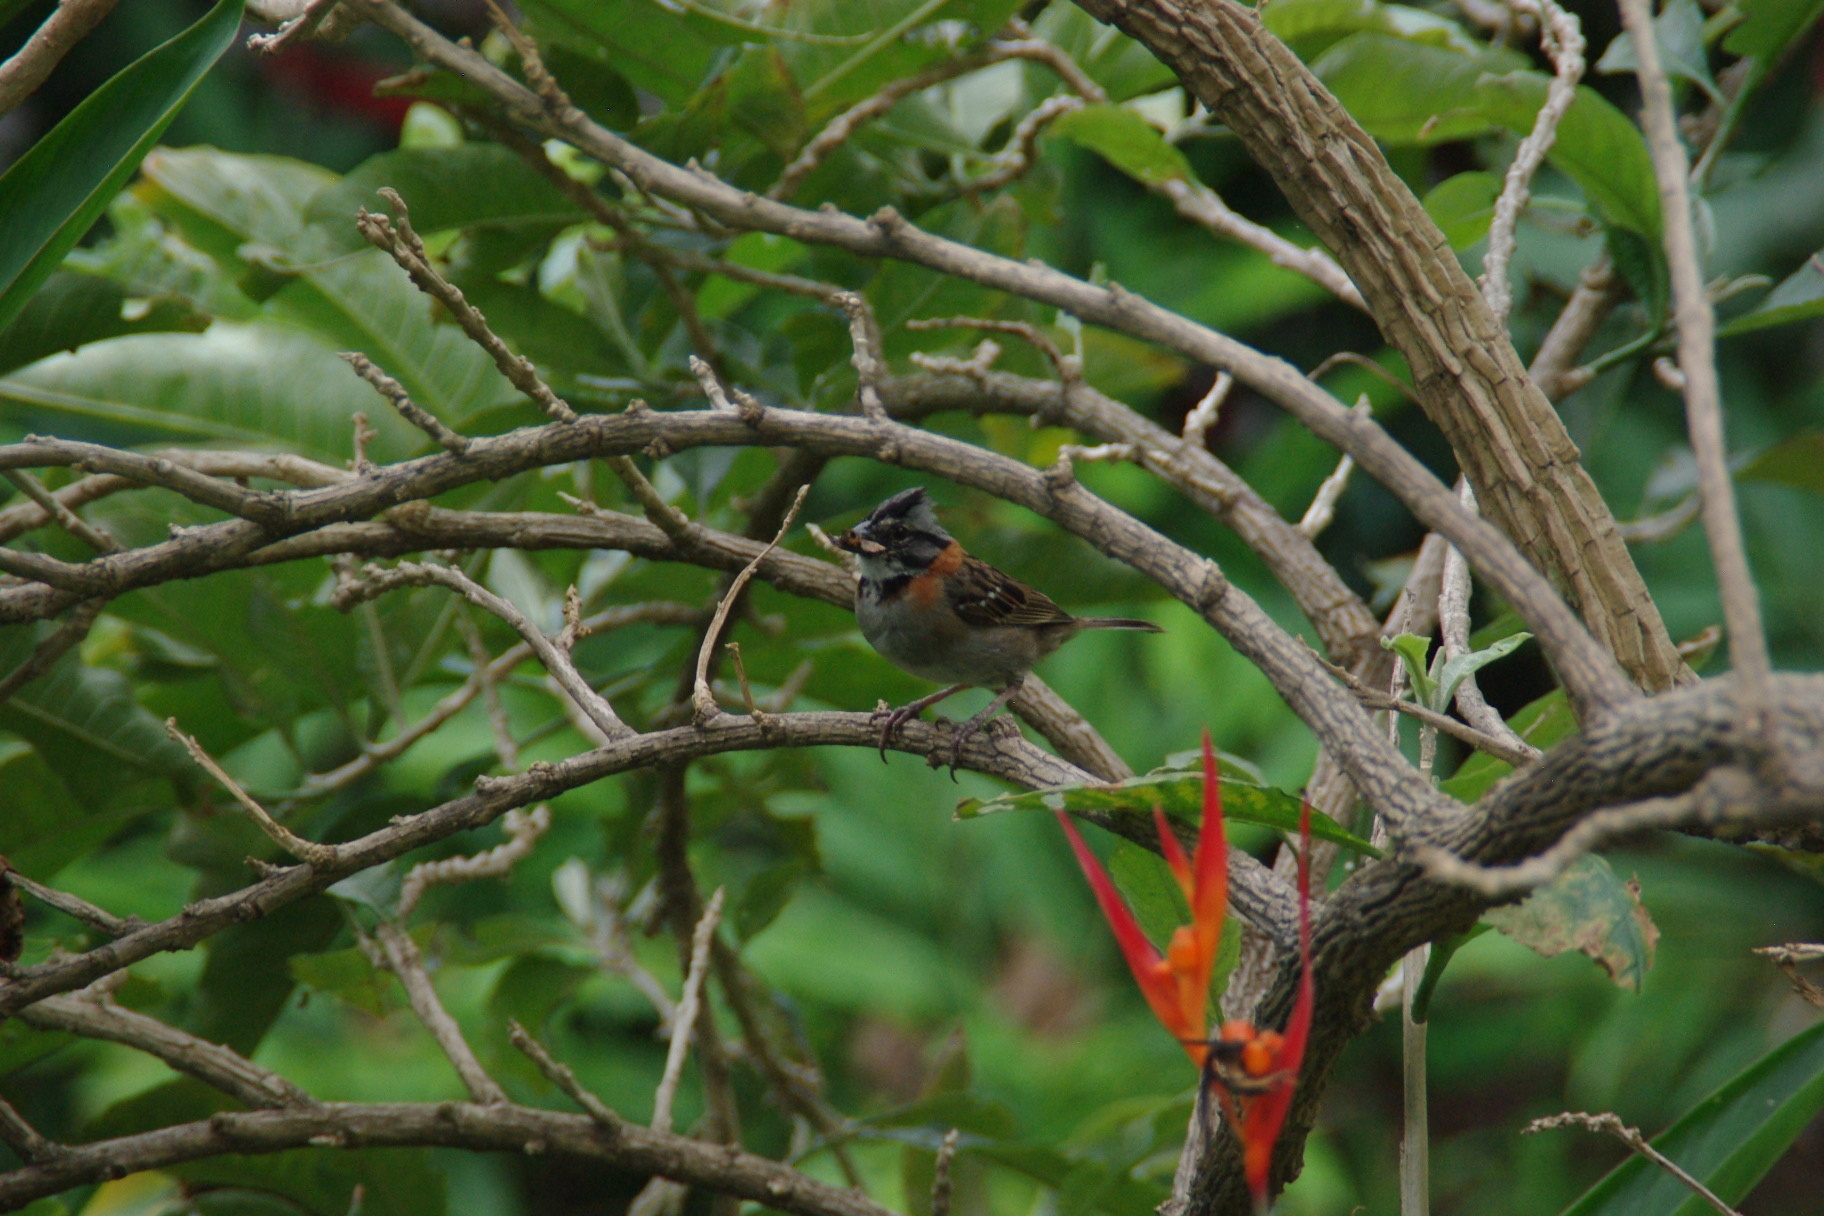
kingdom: Animalia
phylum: Chordata
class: Aves
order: Passeriformes
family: Passerellidae
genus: Zonotrichia
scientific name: Zonotrichia capensis
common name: Rufous-collared sparrow
